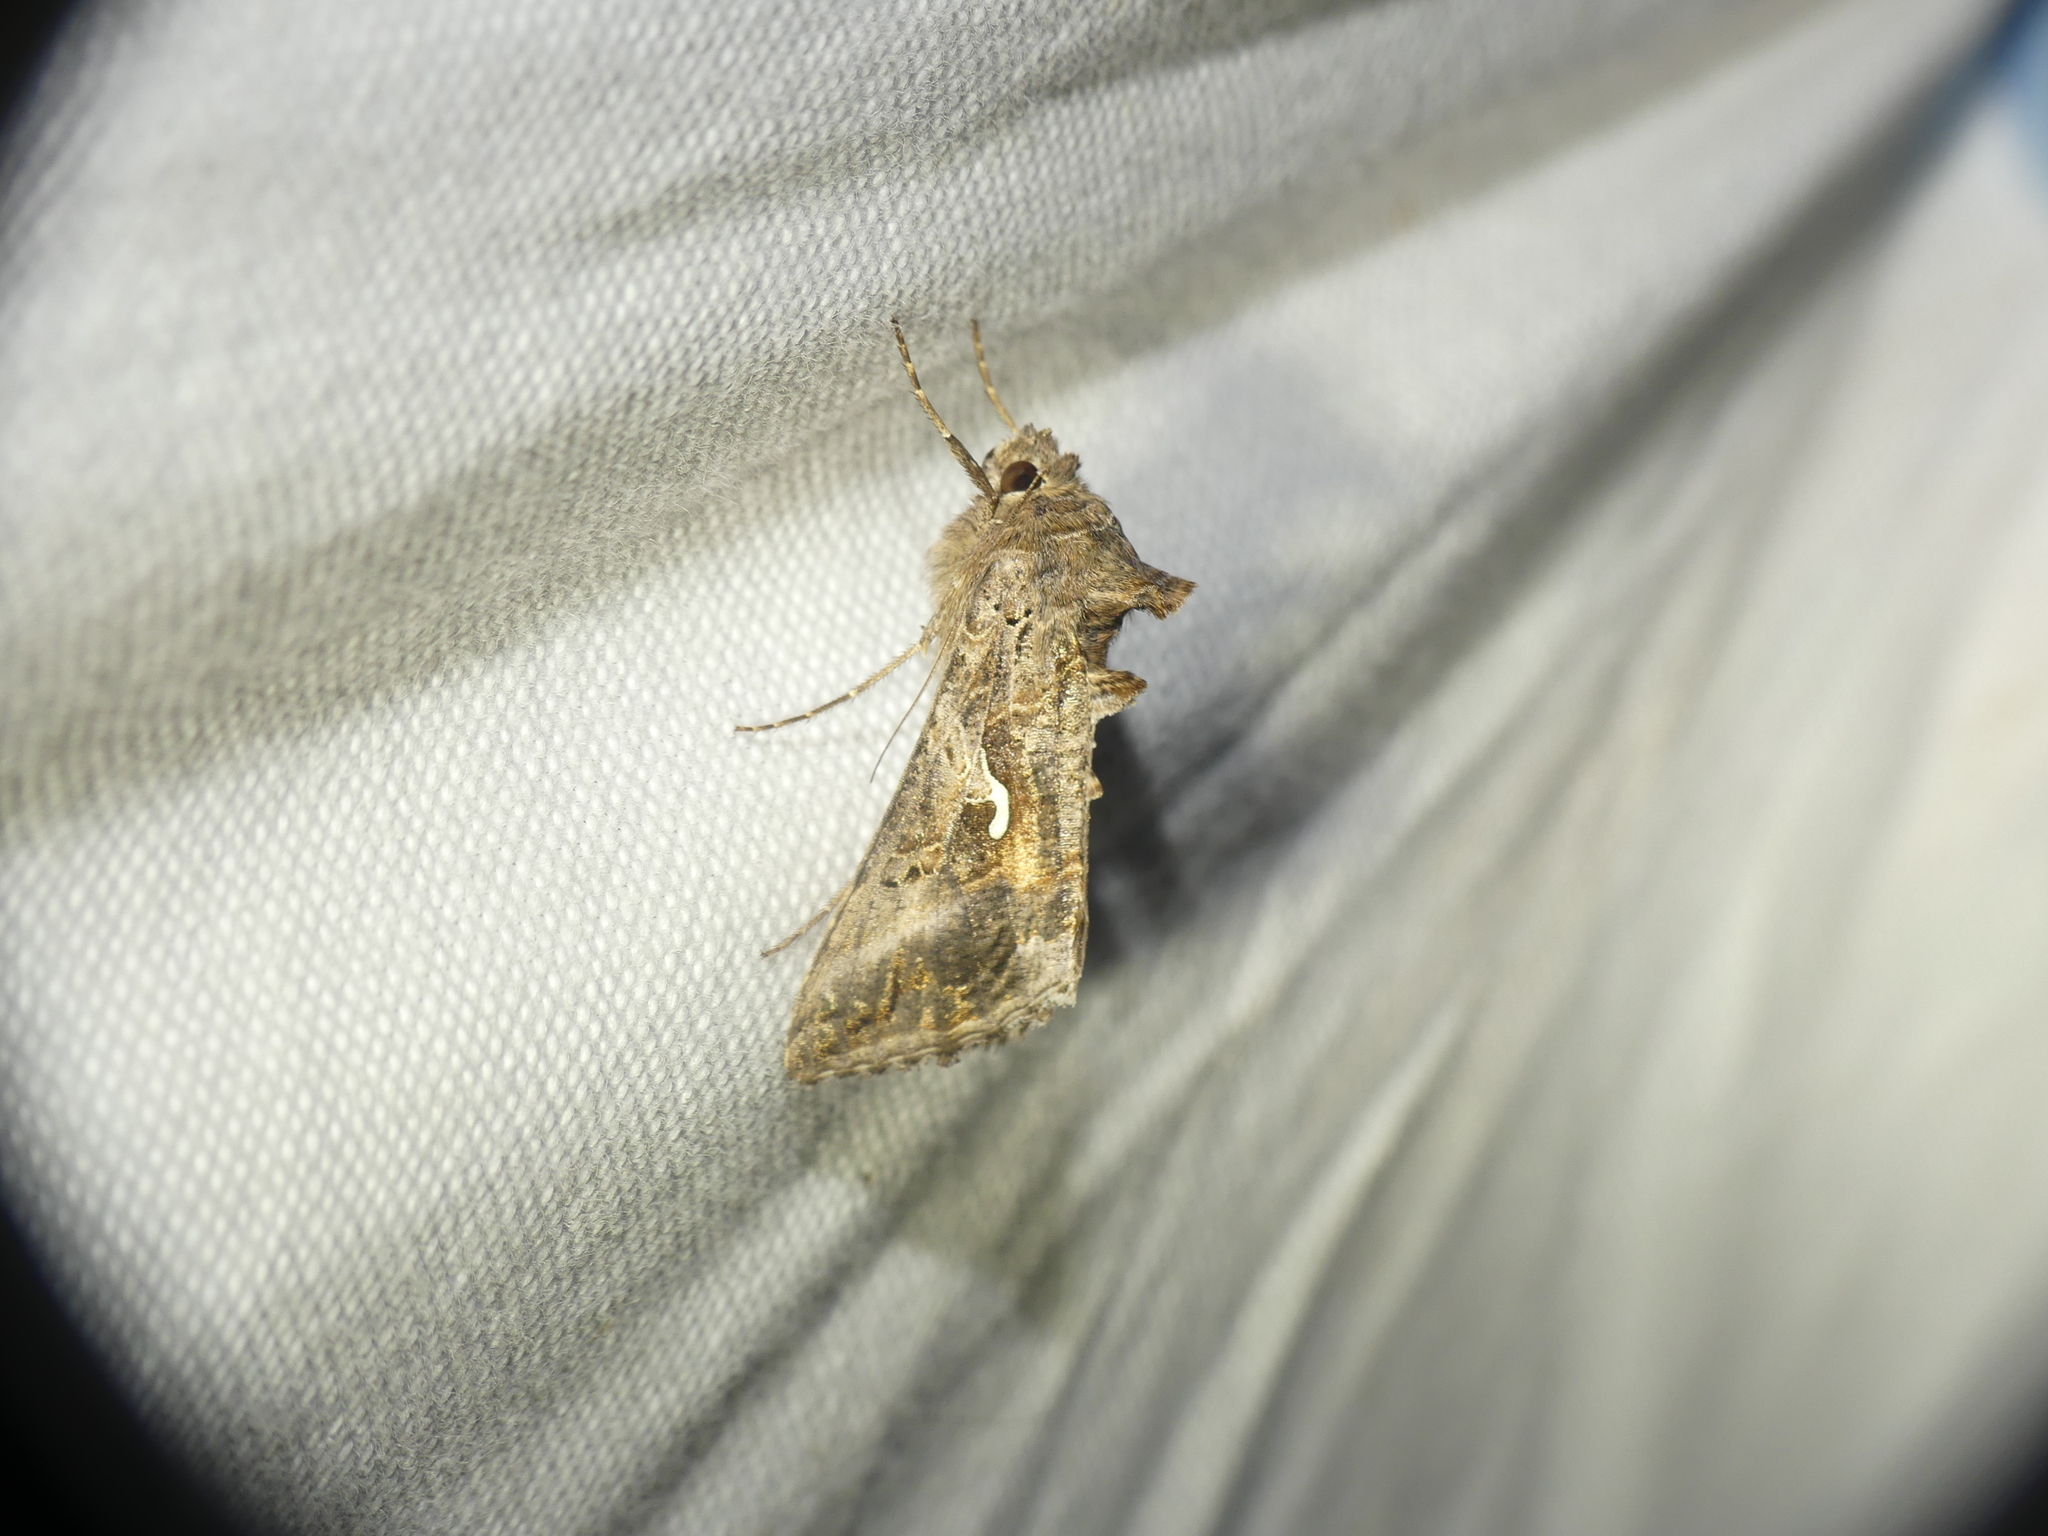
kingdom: Animalia
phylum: Arthropoda
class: Insecta
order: Lepidoptera
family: Noctuidae
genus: Autographa
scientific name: Autographa gamma
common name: Silver y
